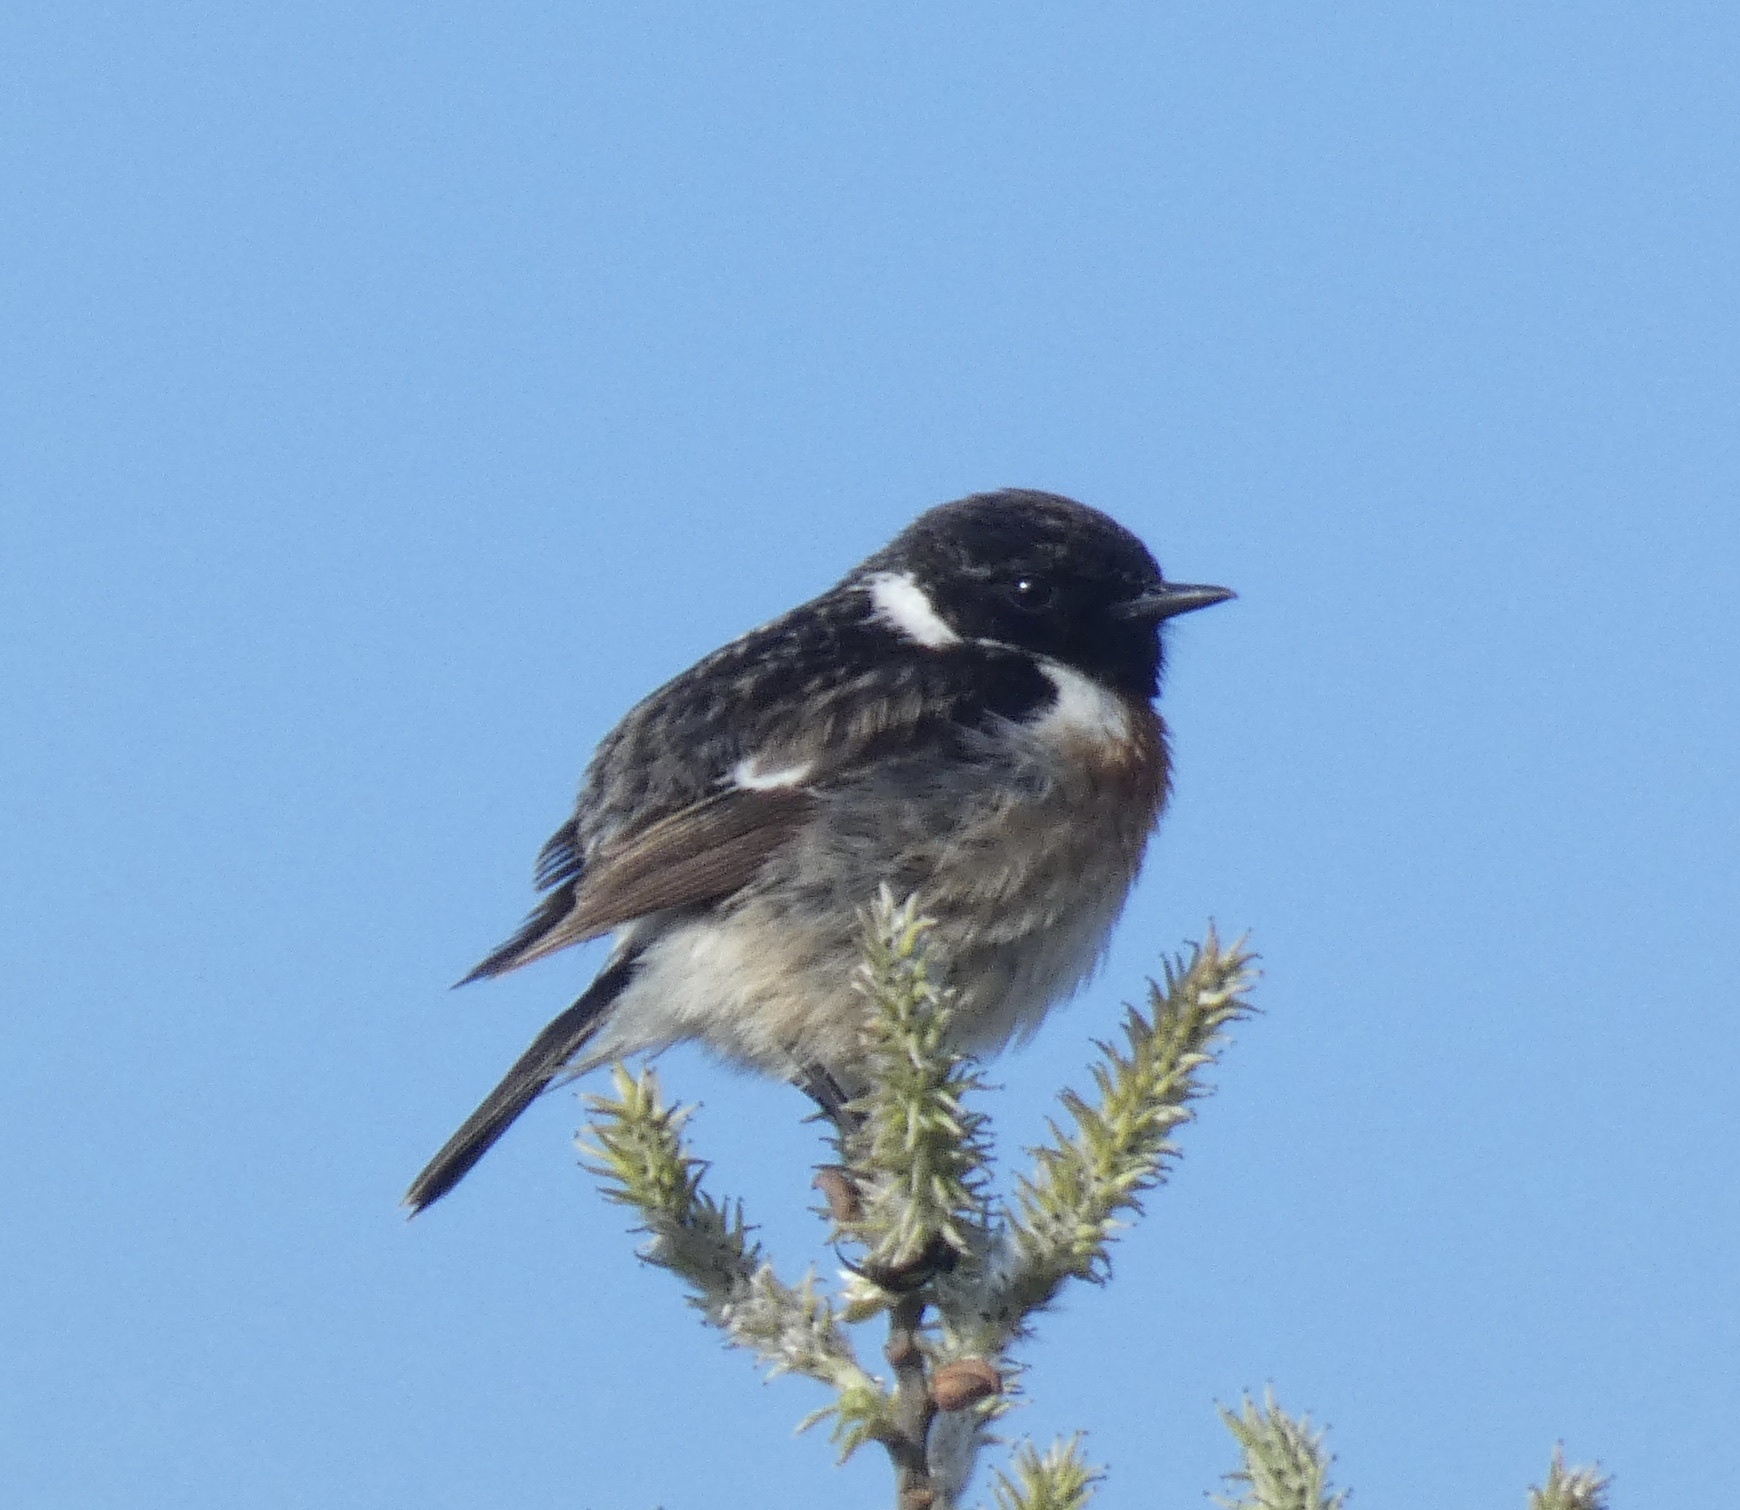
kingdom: Animalia
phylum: Chordata
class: Aves
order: Passeriformes
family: Muscicapidae
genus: Saxicola
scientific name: Saxicola rubicola
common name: European stonechat
